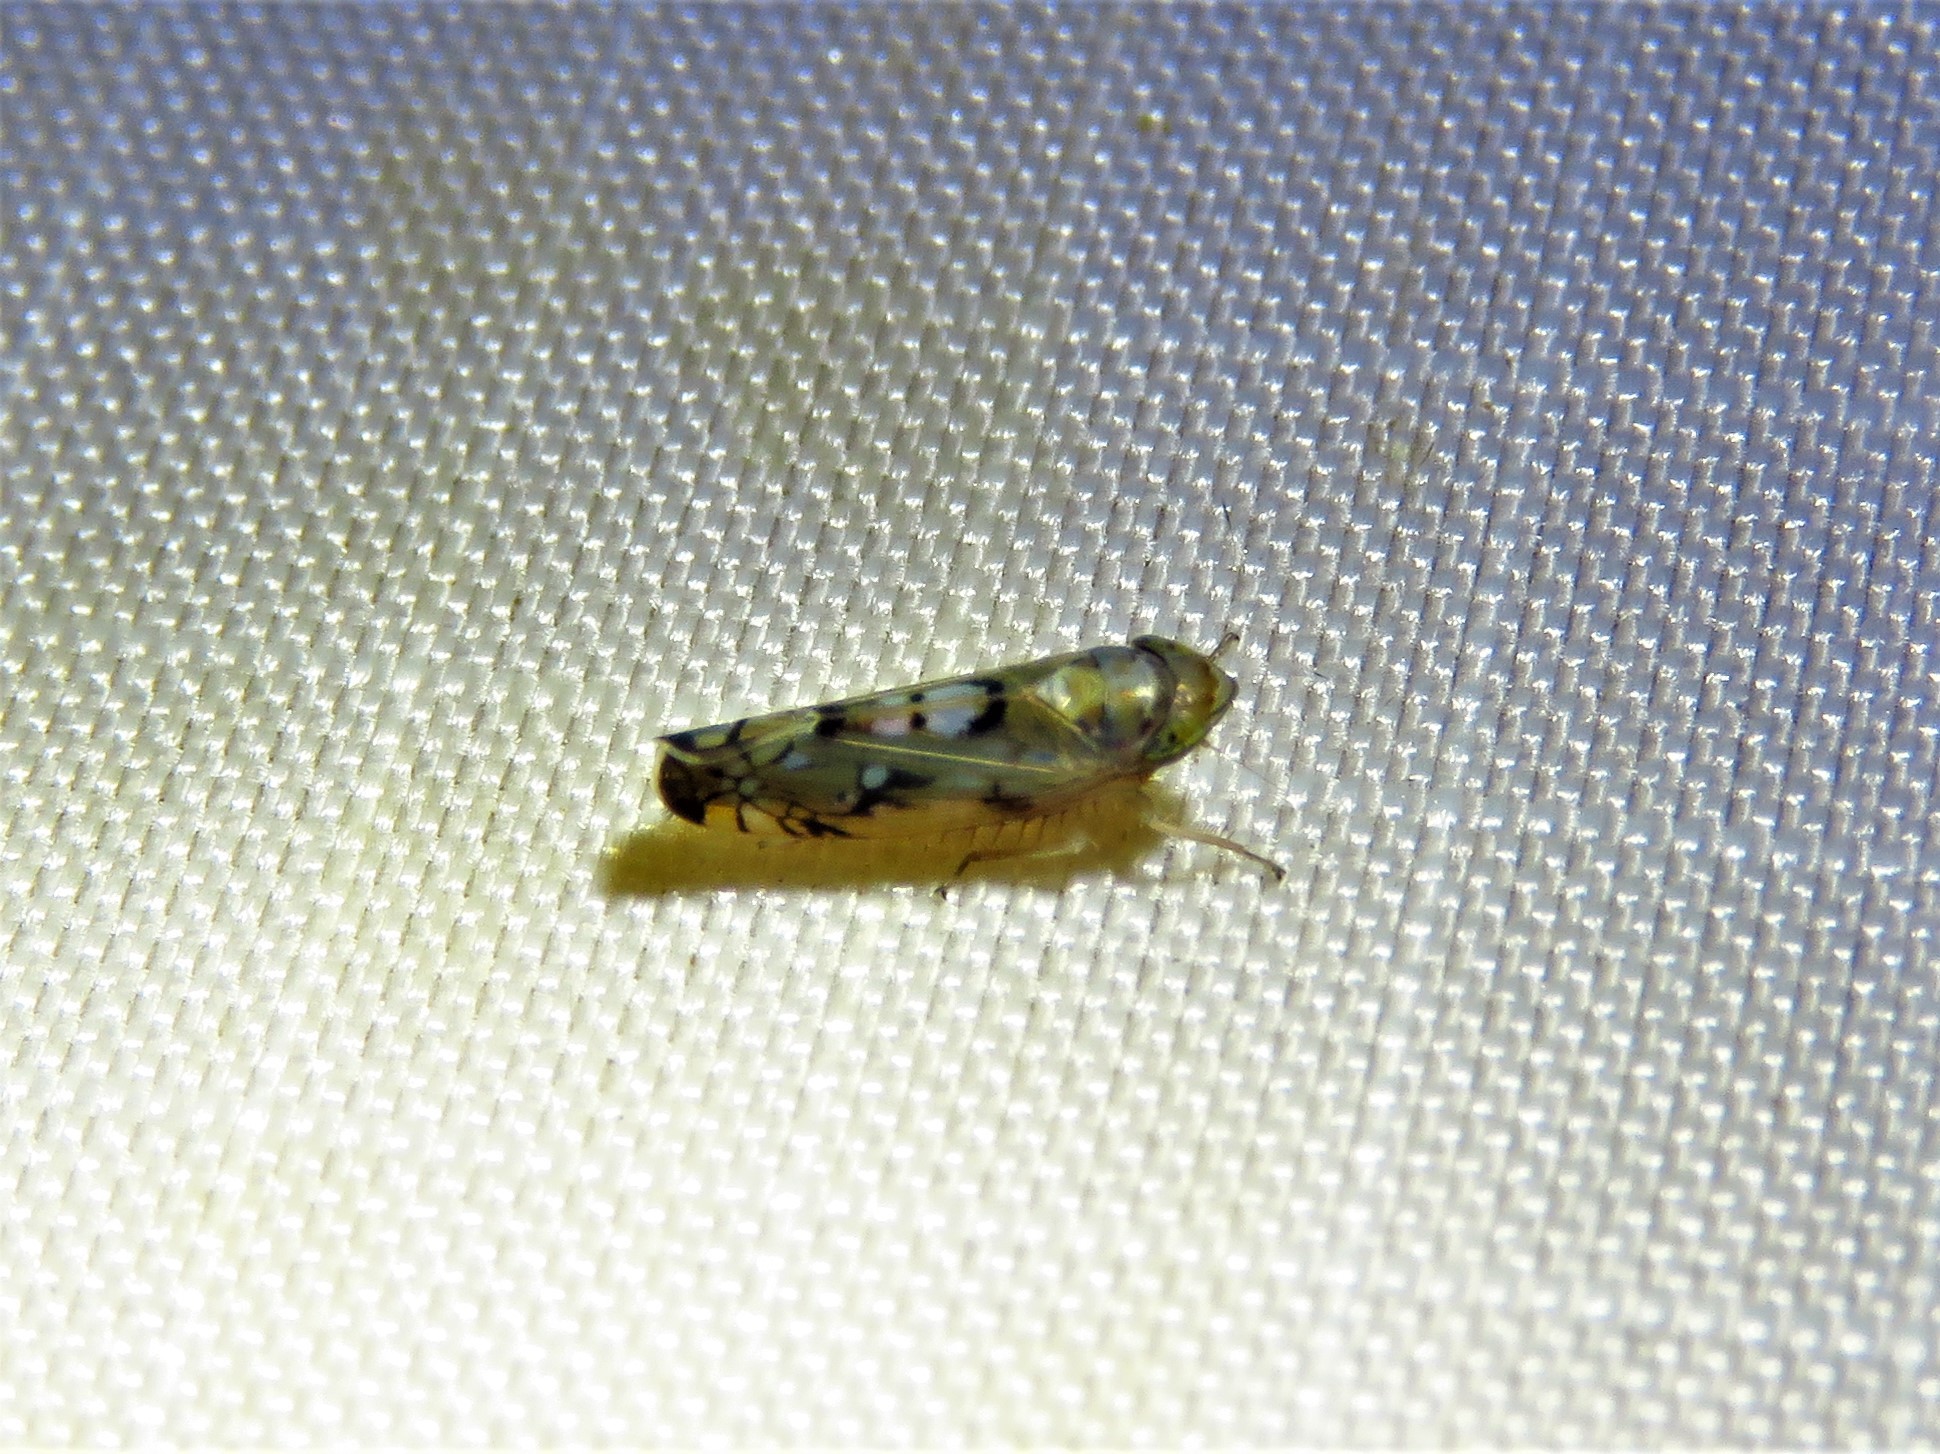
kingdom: Animalia
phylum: Arthropoda
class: Insecta
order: Hemiptera
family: Cicadellidae
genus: Scaphoideus
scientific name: Scaphoideus opalinus
